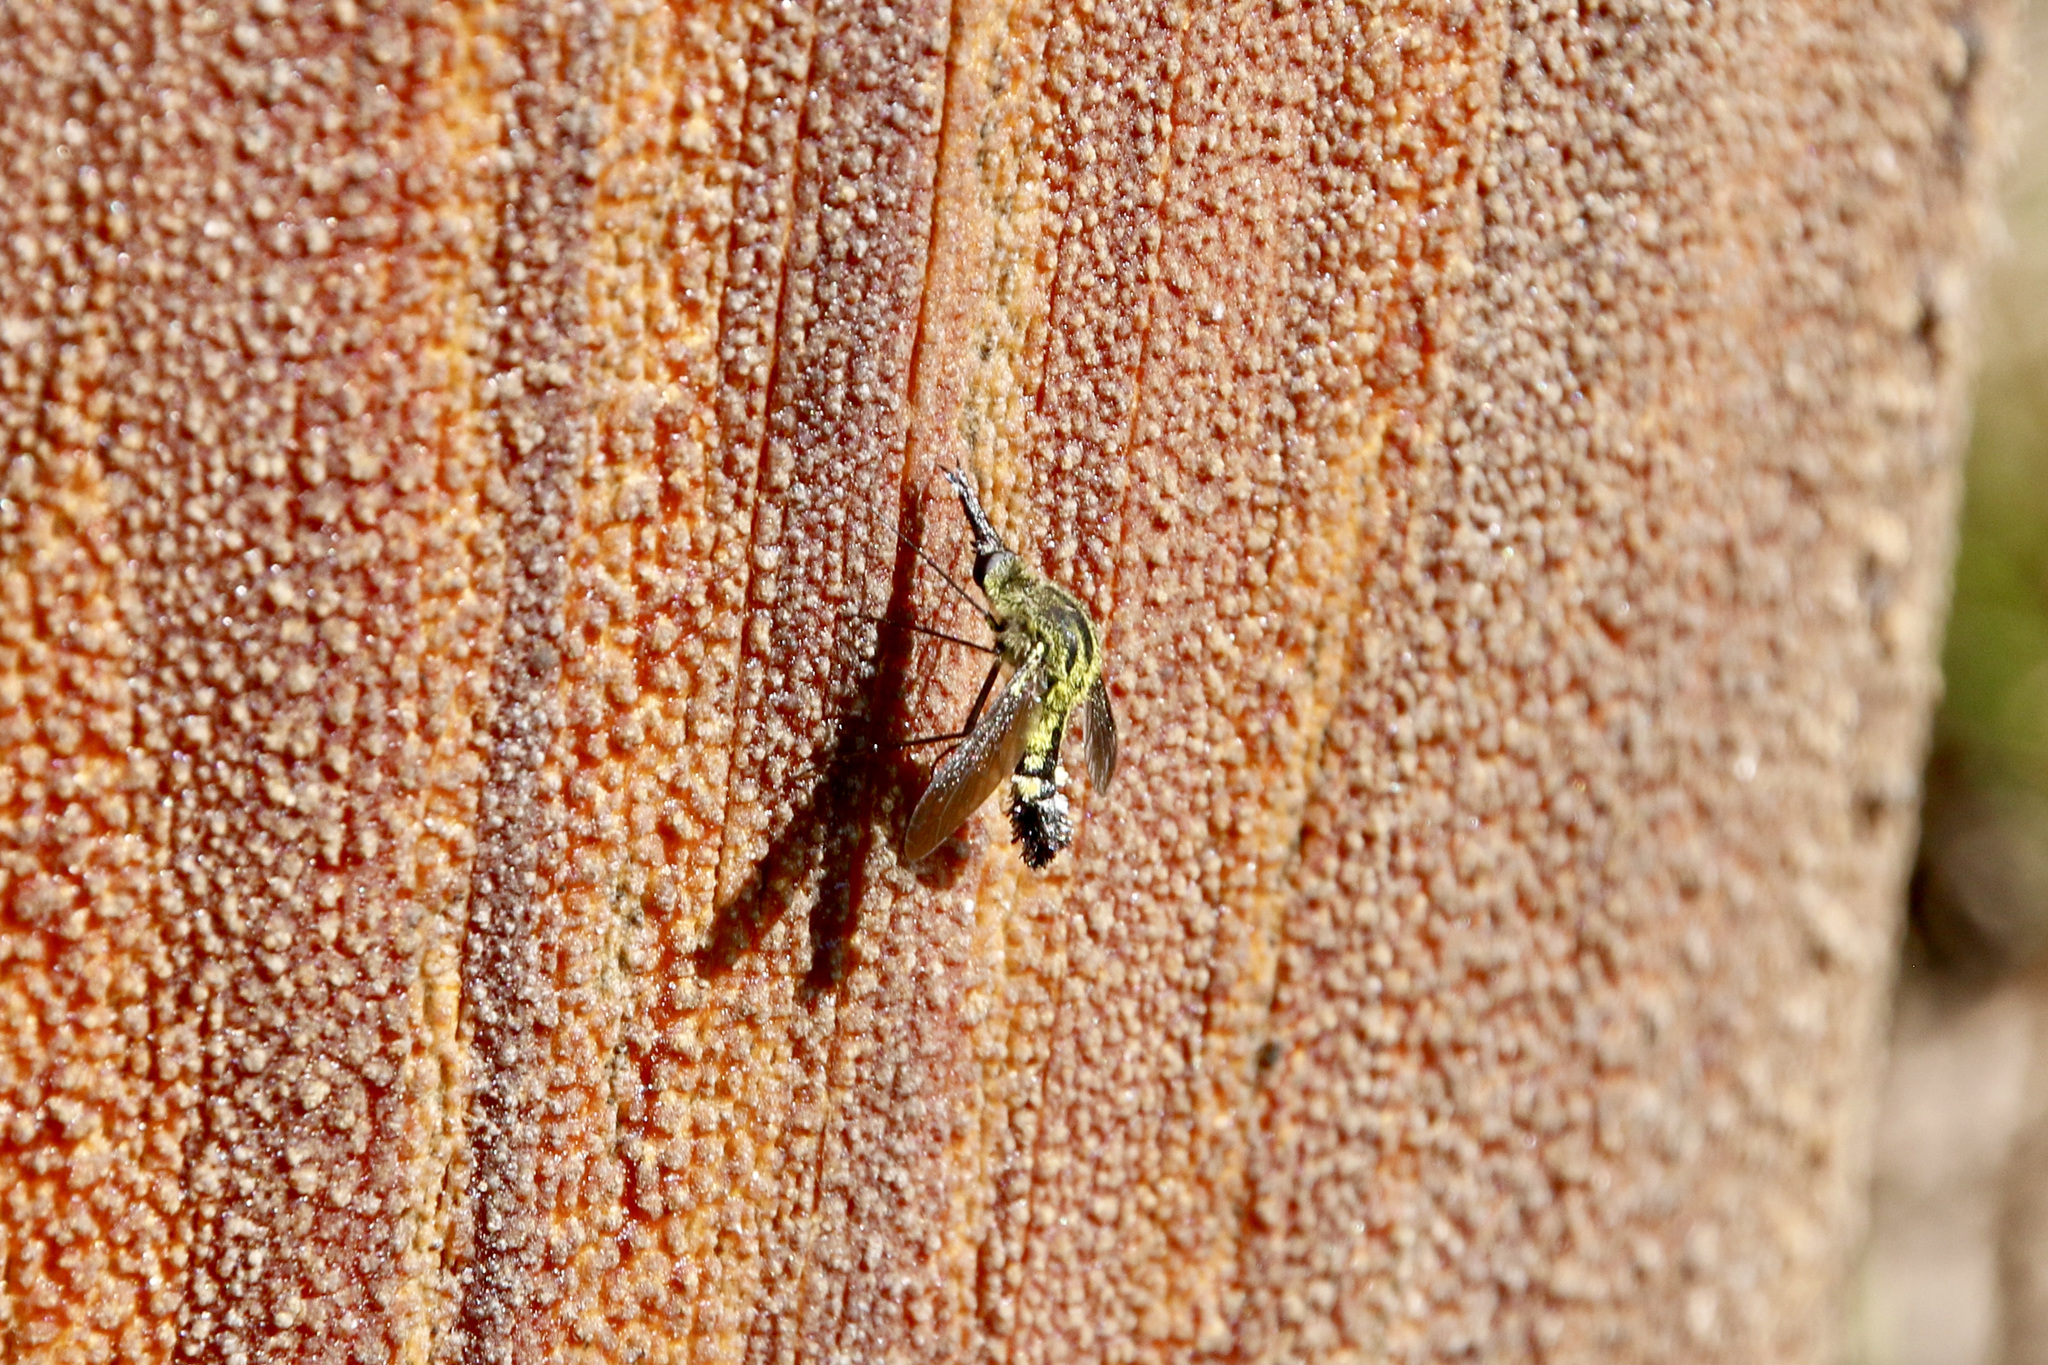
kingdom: Animalia
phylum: Arthropoda
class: Insecta
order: Diptera
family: Bombyliidae
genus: Lepidophora
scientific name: Lepidophora lutea
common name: Hunchback bee fly
